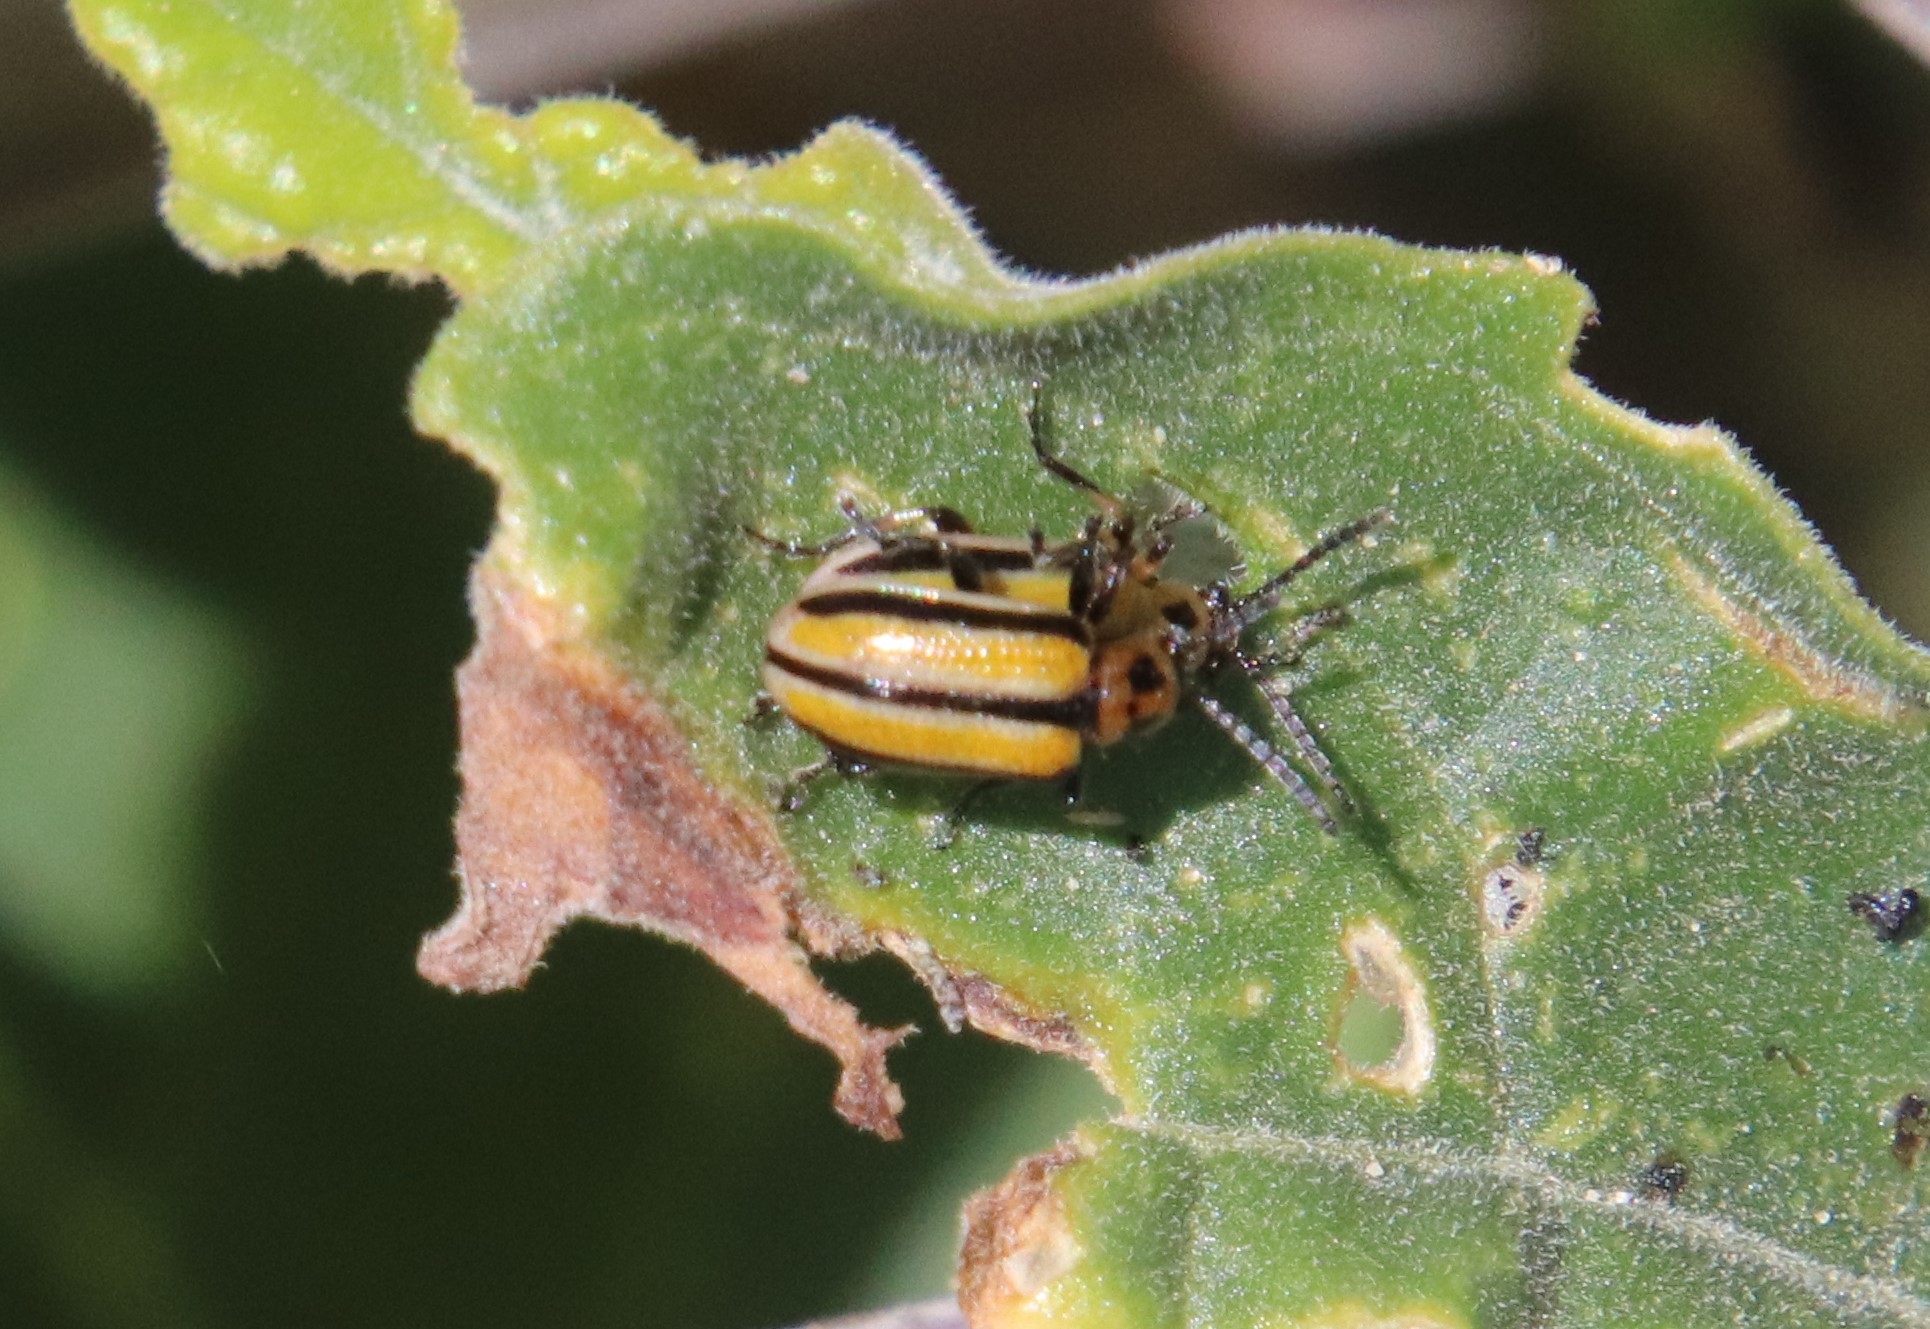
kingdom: Animalia
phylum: Arthropoda
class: Insecta
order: Coleoptera
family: Chrysomelidae
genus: Lema
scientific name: Lema daturaphila
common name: Leaf beetle
